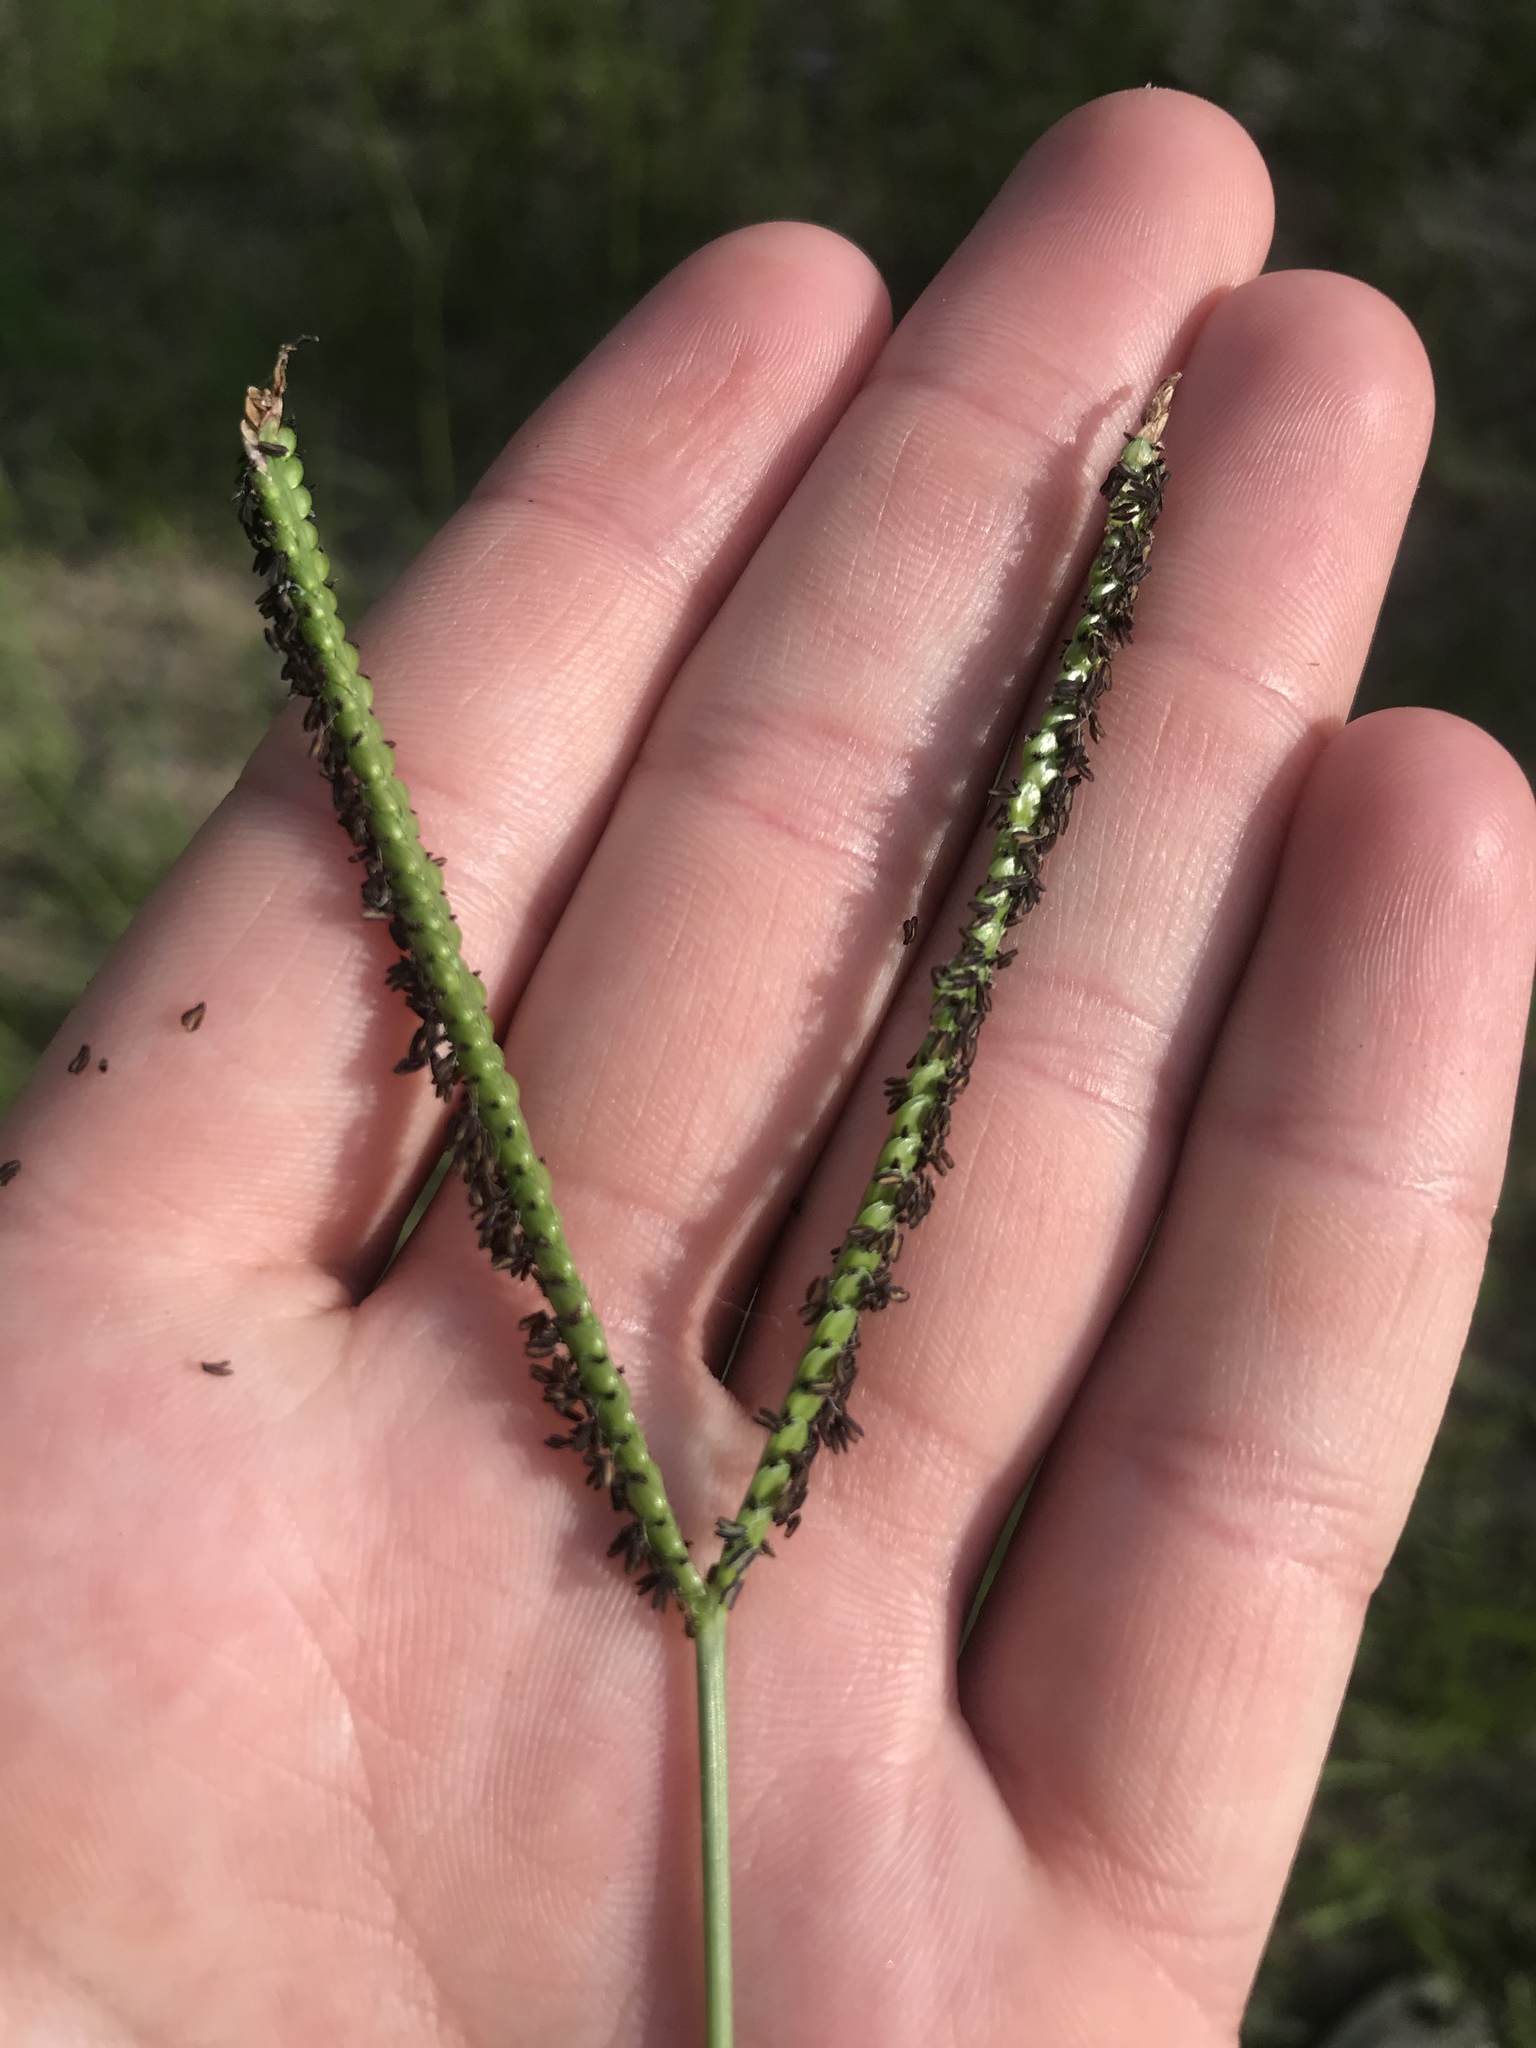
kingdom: Plantae
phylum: Tracheophyta
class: Liliopsida
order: Poales
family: Poaceae
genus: Paspalum
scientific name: Paspalum notatum
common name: Bahiagrass
